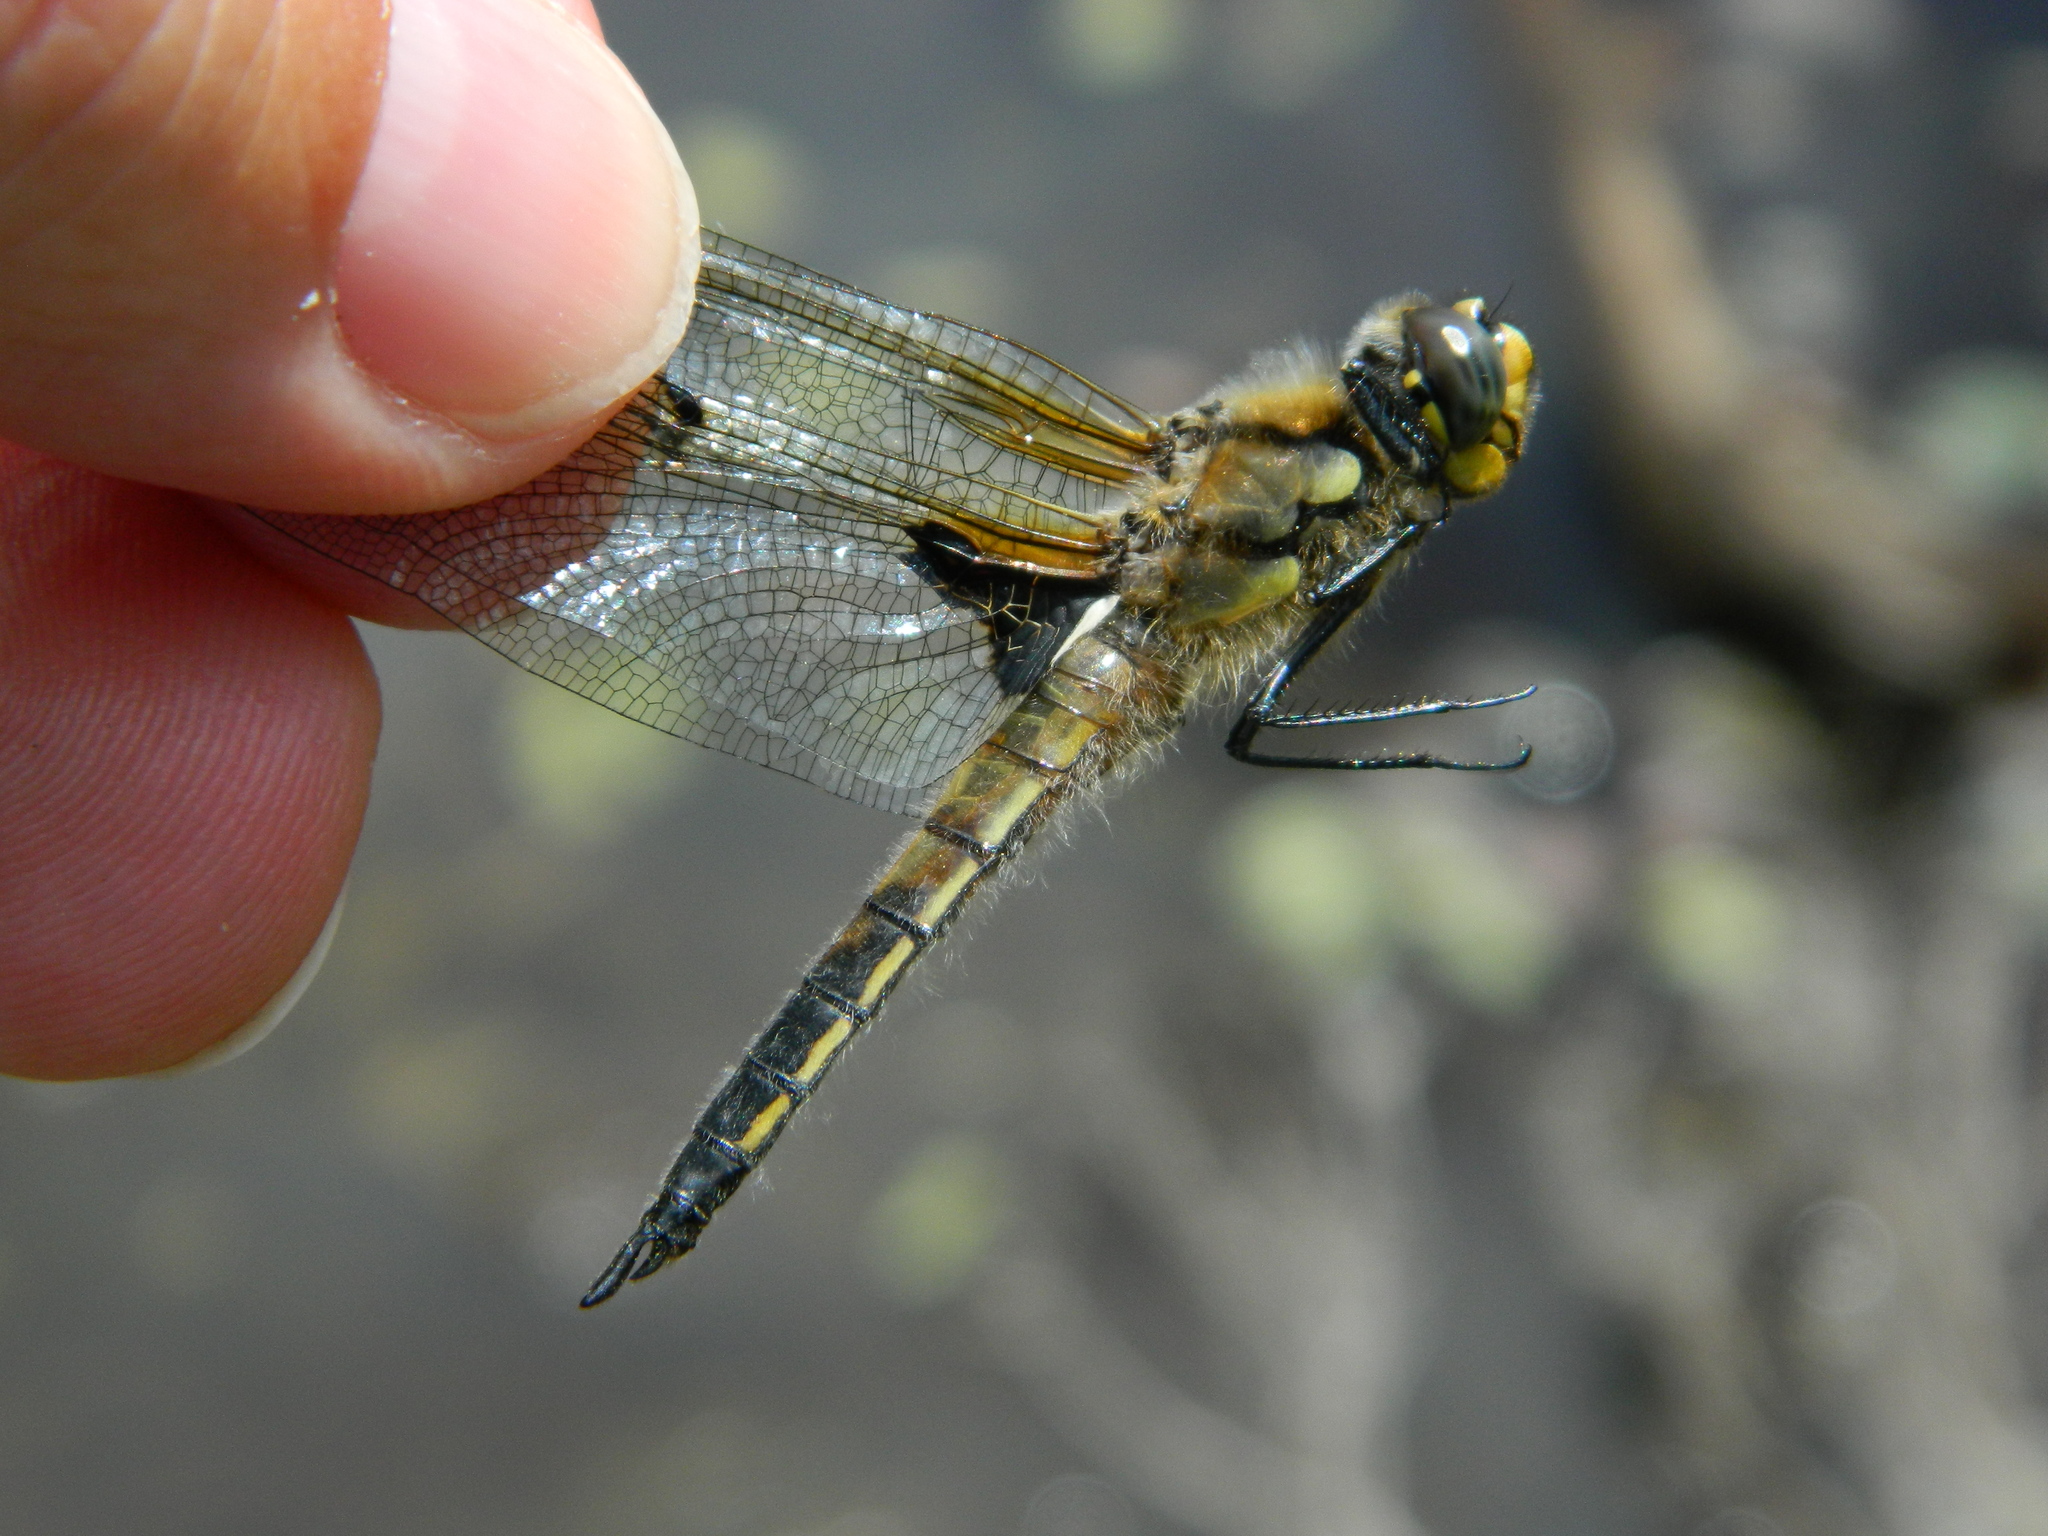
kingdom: Animalia
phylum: Arthropoda
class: Insecta
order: Odonata
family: Libellulidae
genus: Libellula
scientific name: Libellula quadrimaculata
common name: Four-spotted chaser
